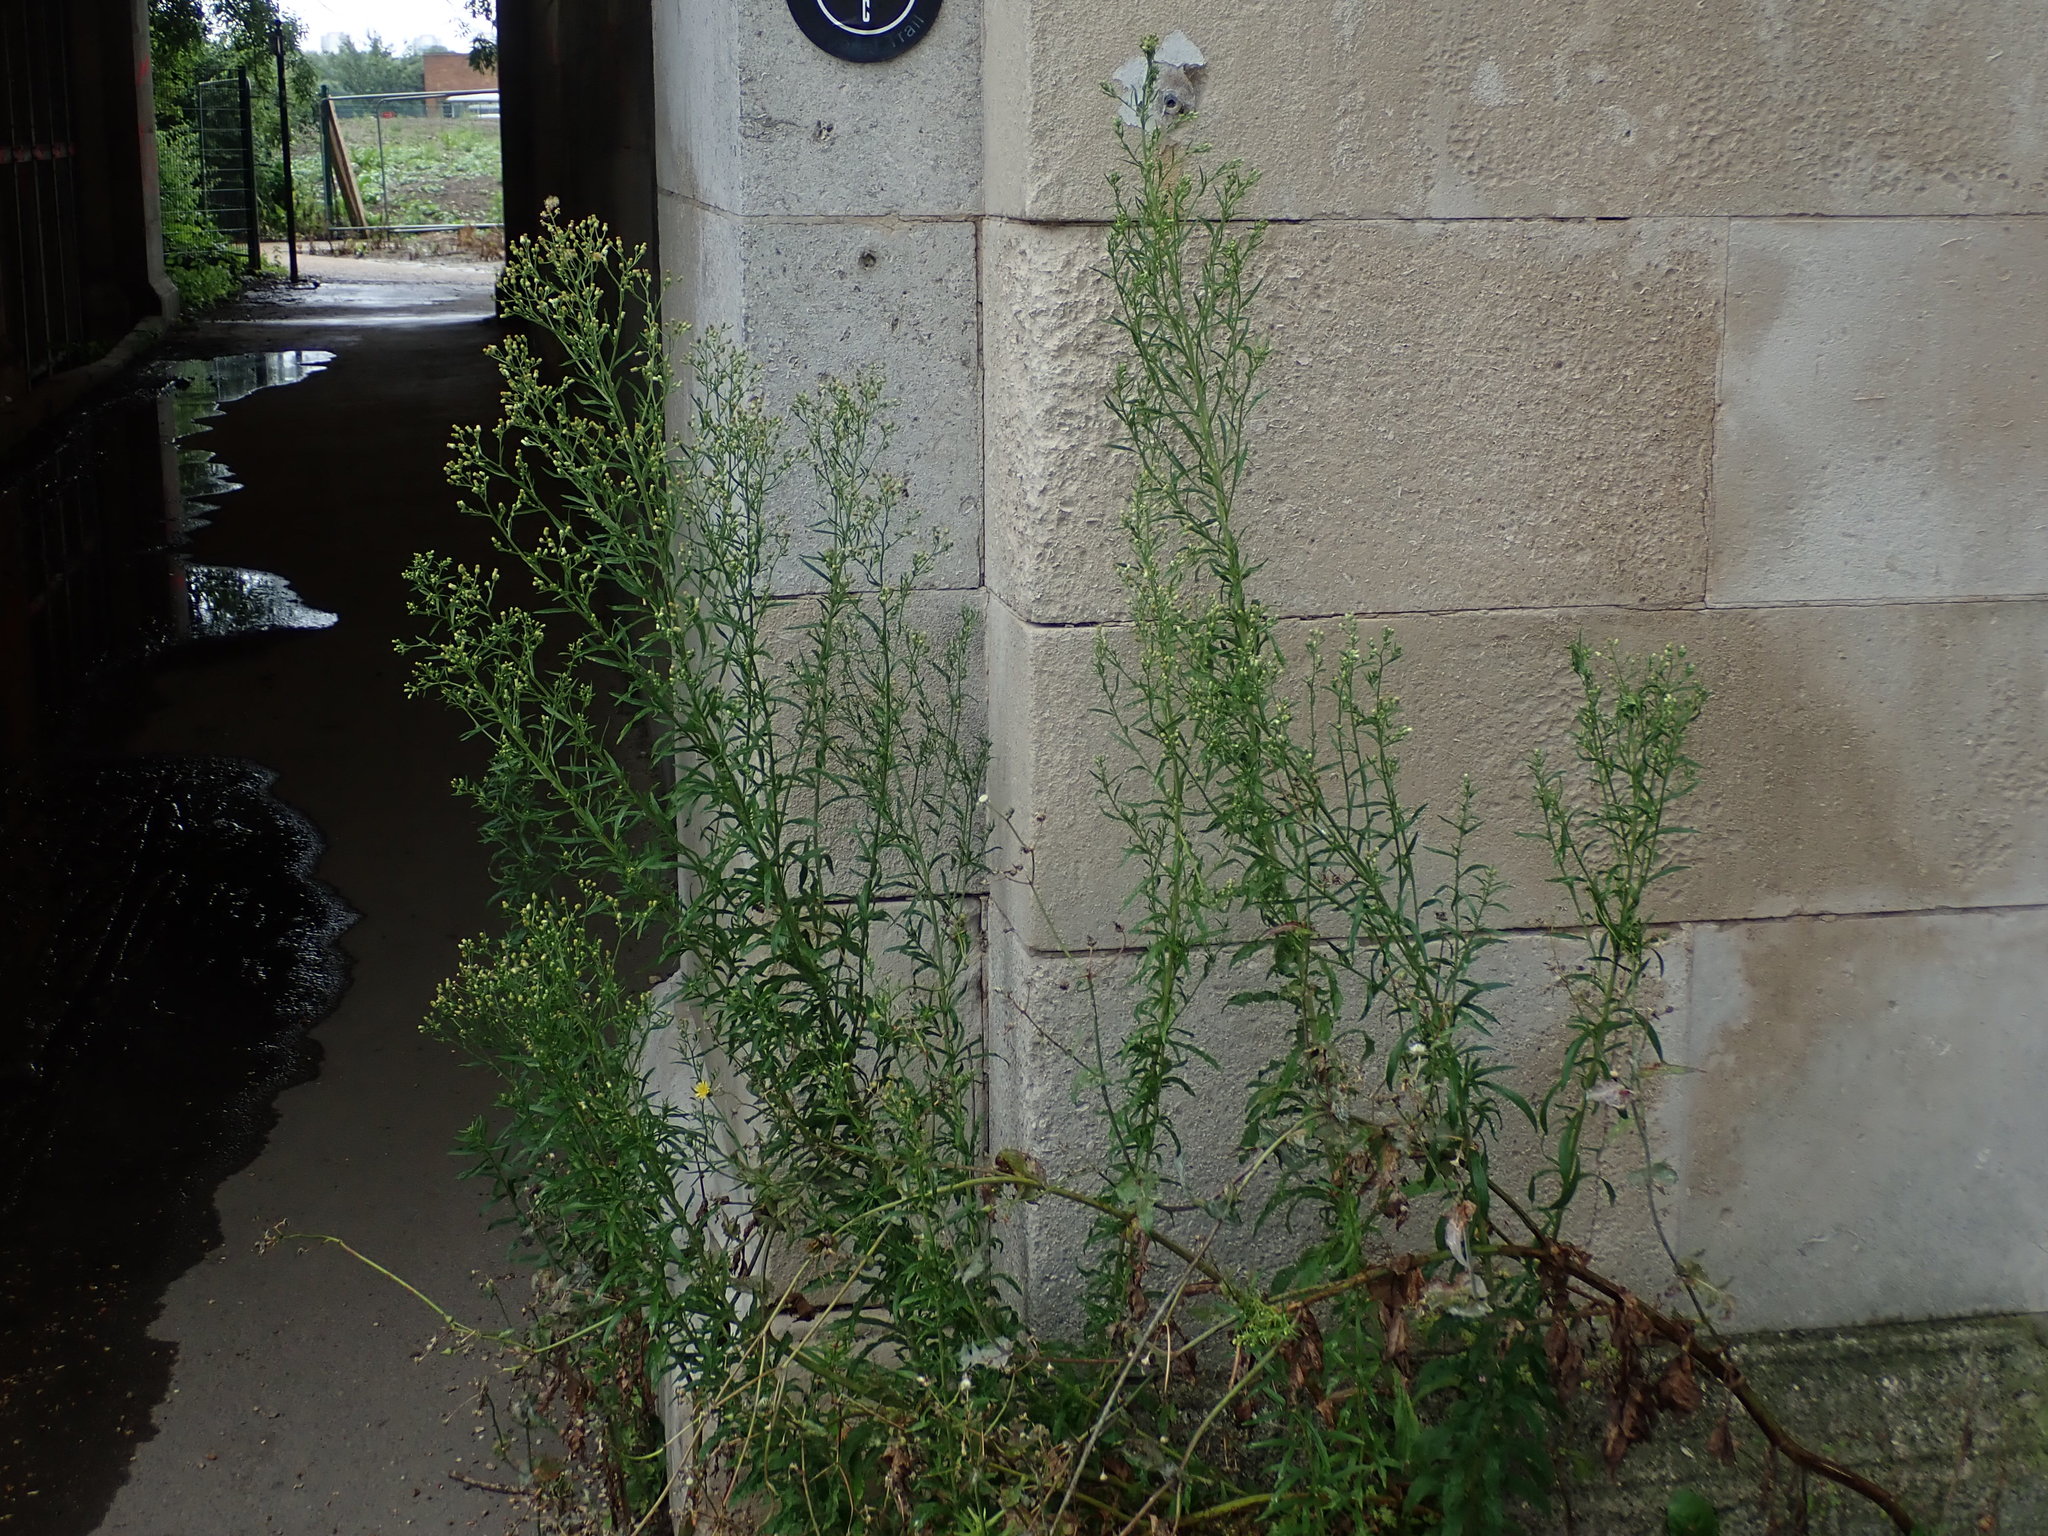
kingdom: Plantae
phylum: Tracheophyta
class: Magnoliopsida
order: Asterales
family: Asteraceae
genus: Erigeron
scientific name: Erigeron sumatrensis
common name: Daisy
